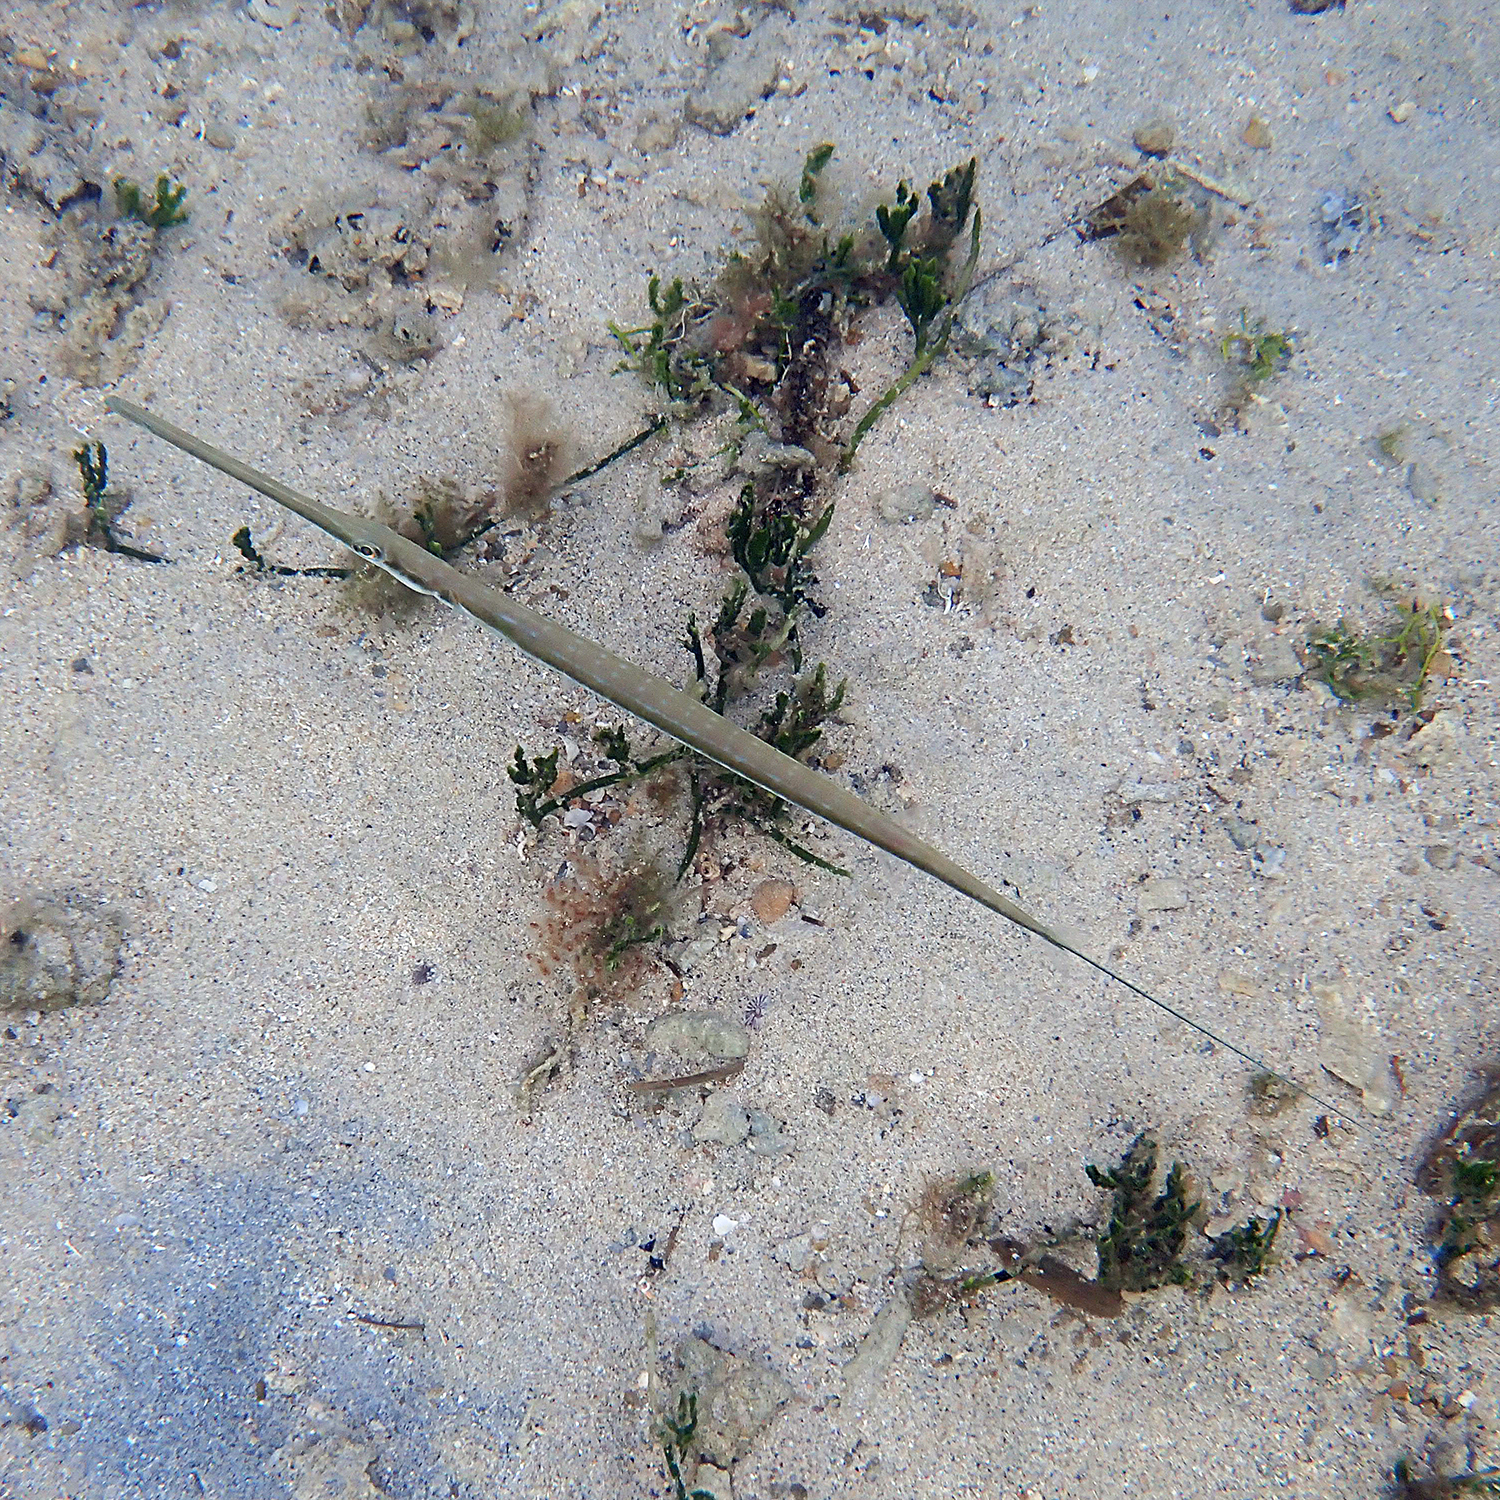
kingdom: Animalia
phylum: Chordata
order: Syngnathiformes
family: Fistulariidae
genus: Fistularia
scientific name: Fistularia commersonii
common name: Bluespotted cornetfish
